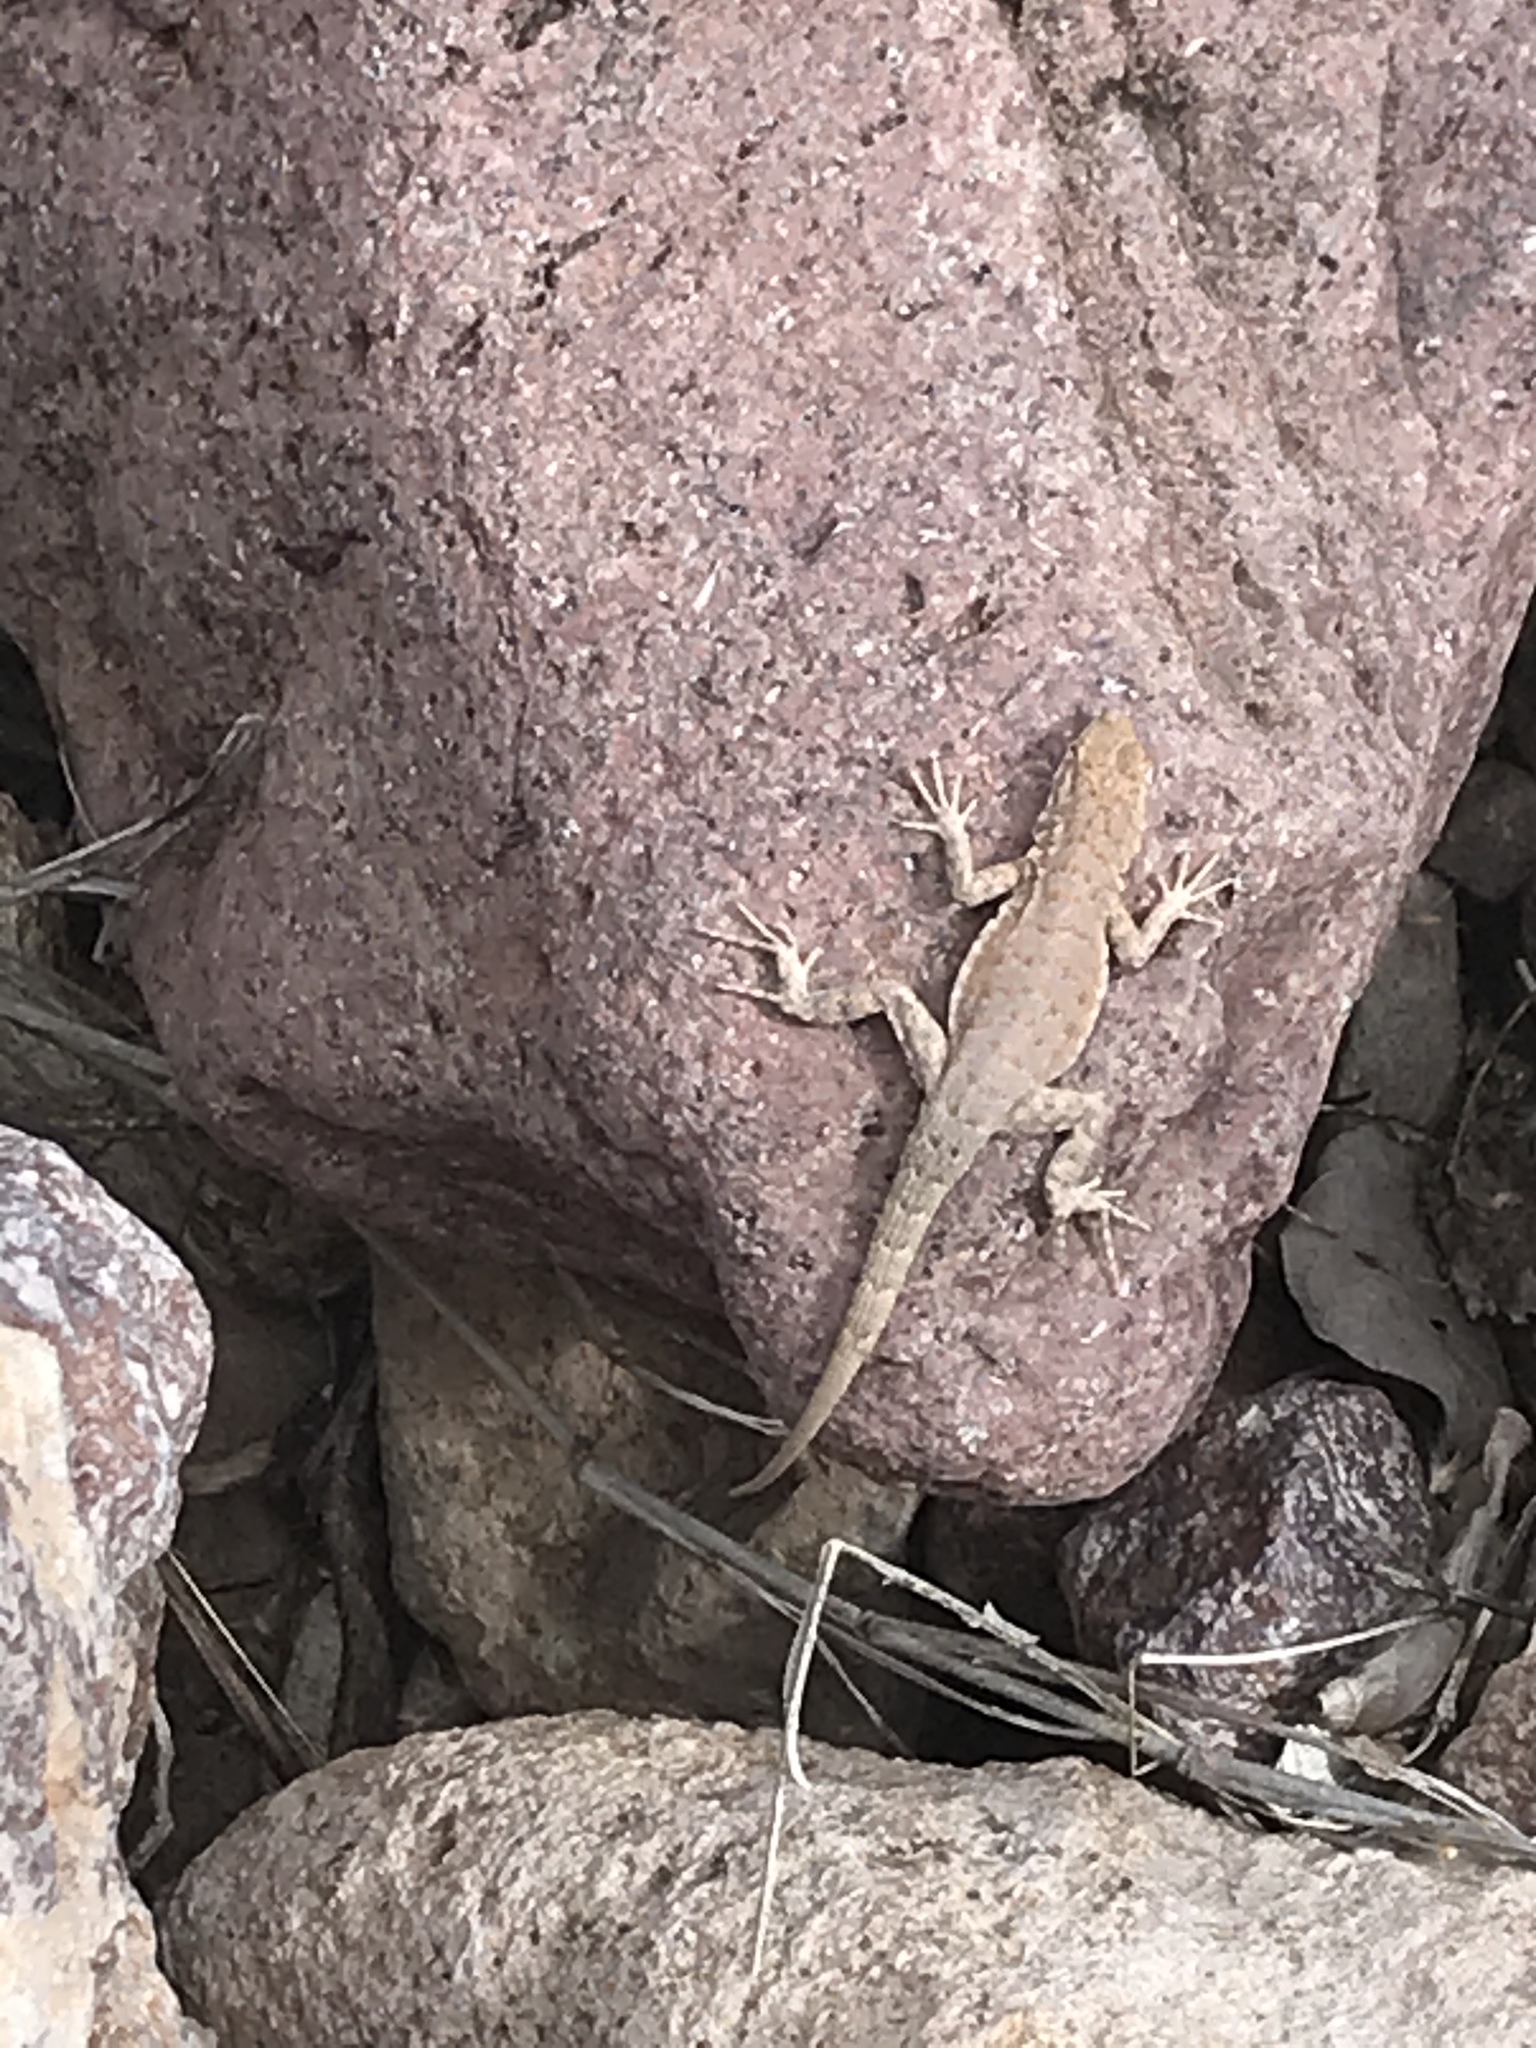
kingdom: Animalia
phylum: Chordata
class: Squamata
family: Phrynosomatidae
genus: Uta
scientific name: Uta stansburiana
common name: Side-blotched lizard
